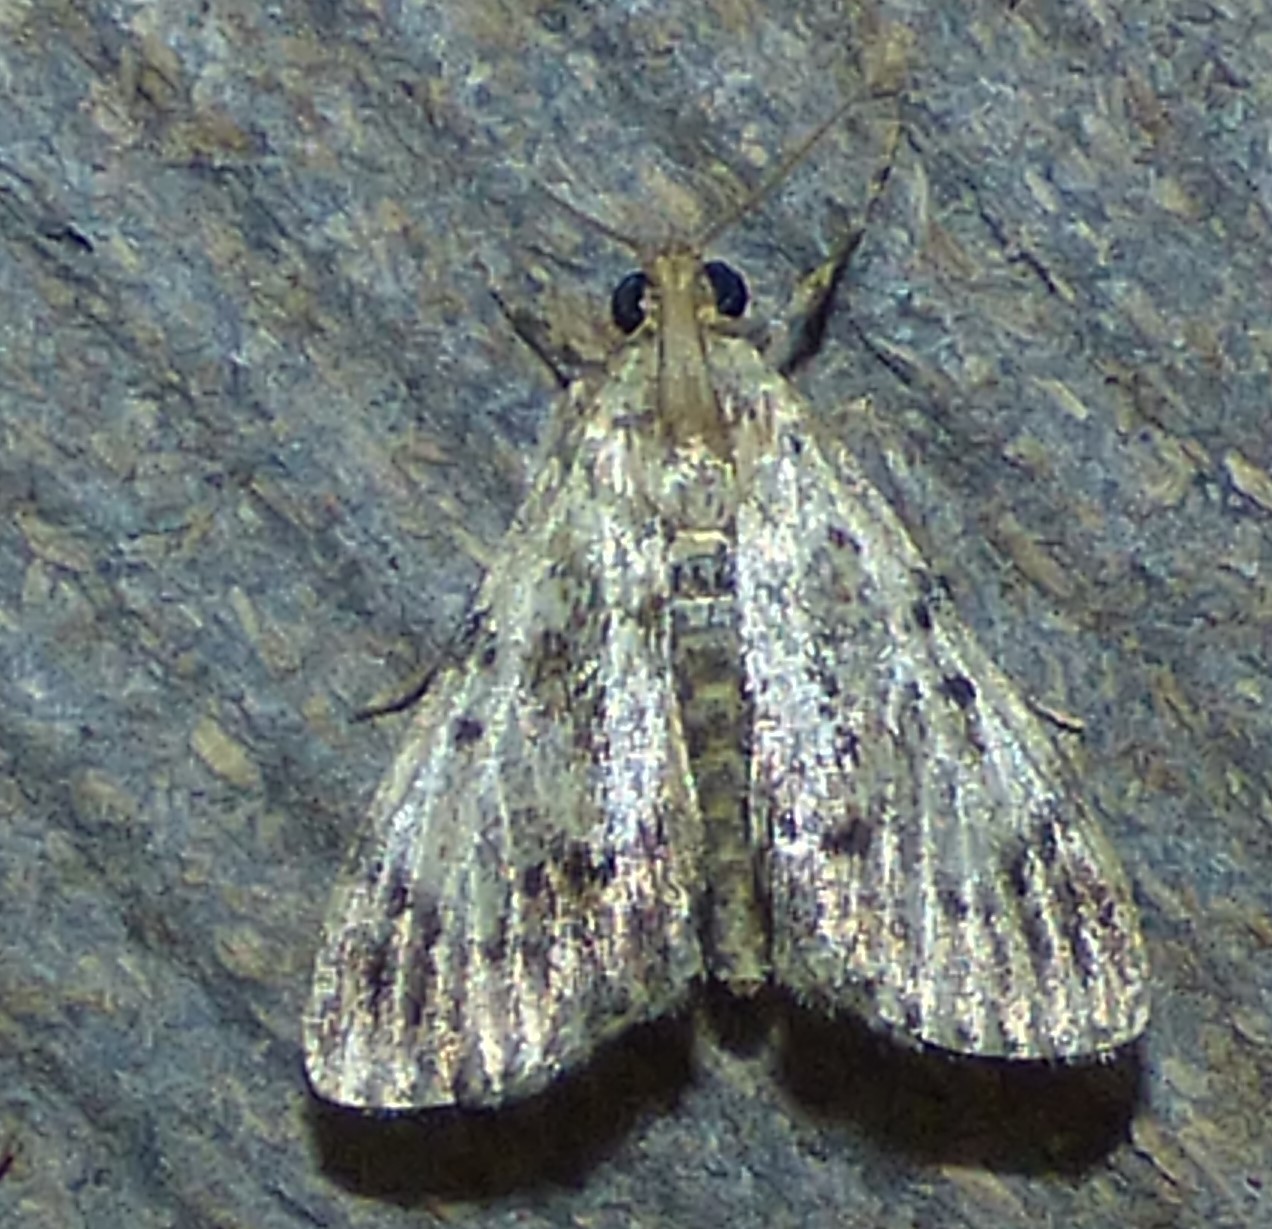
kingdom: Animalia
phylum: Arthropoda
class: Insecta
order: Lepidoptera
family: Pyralidae
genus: Epipaschia
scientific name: Epipaschia superatalis
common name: Dimorphic macalla moth
